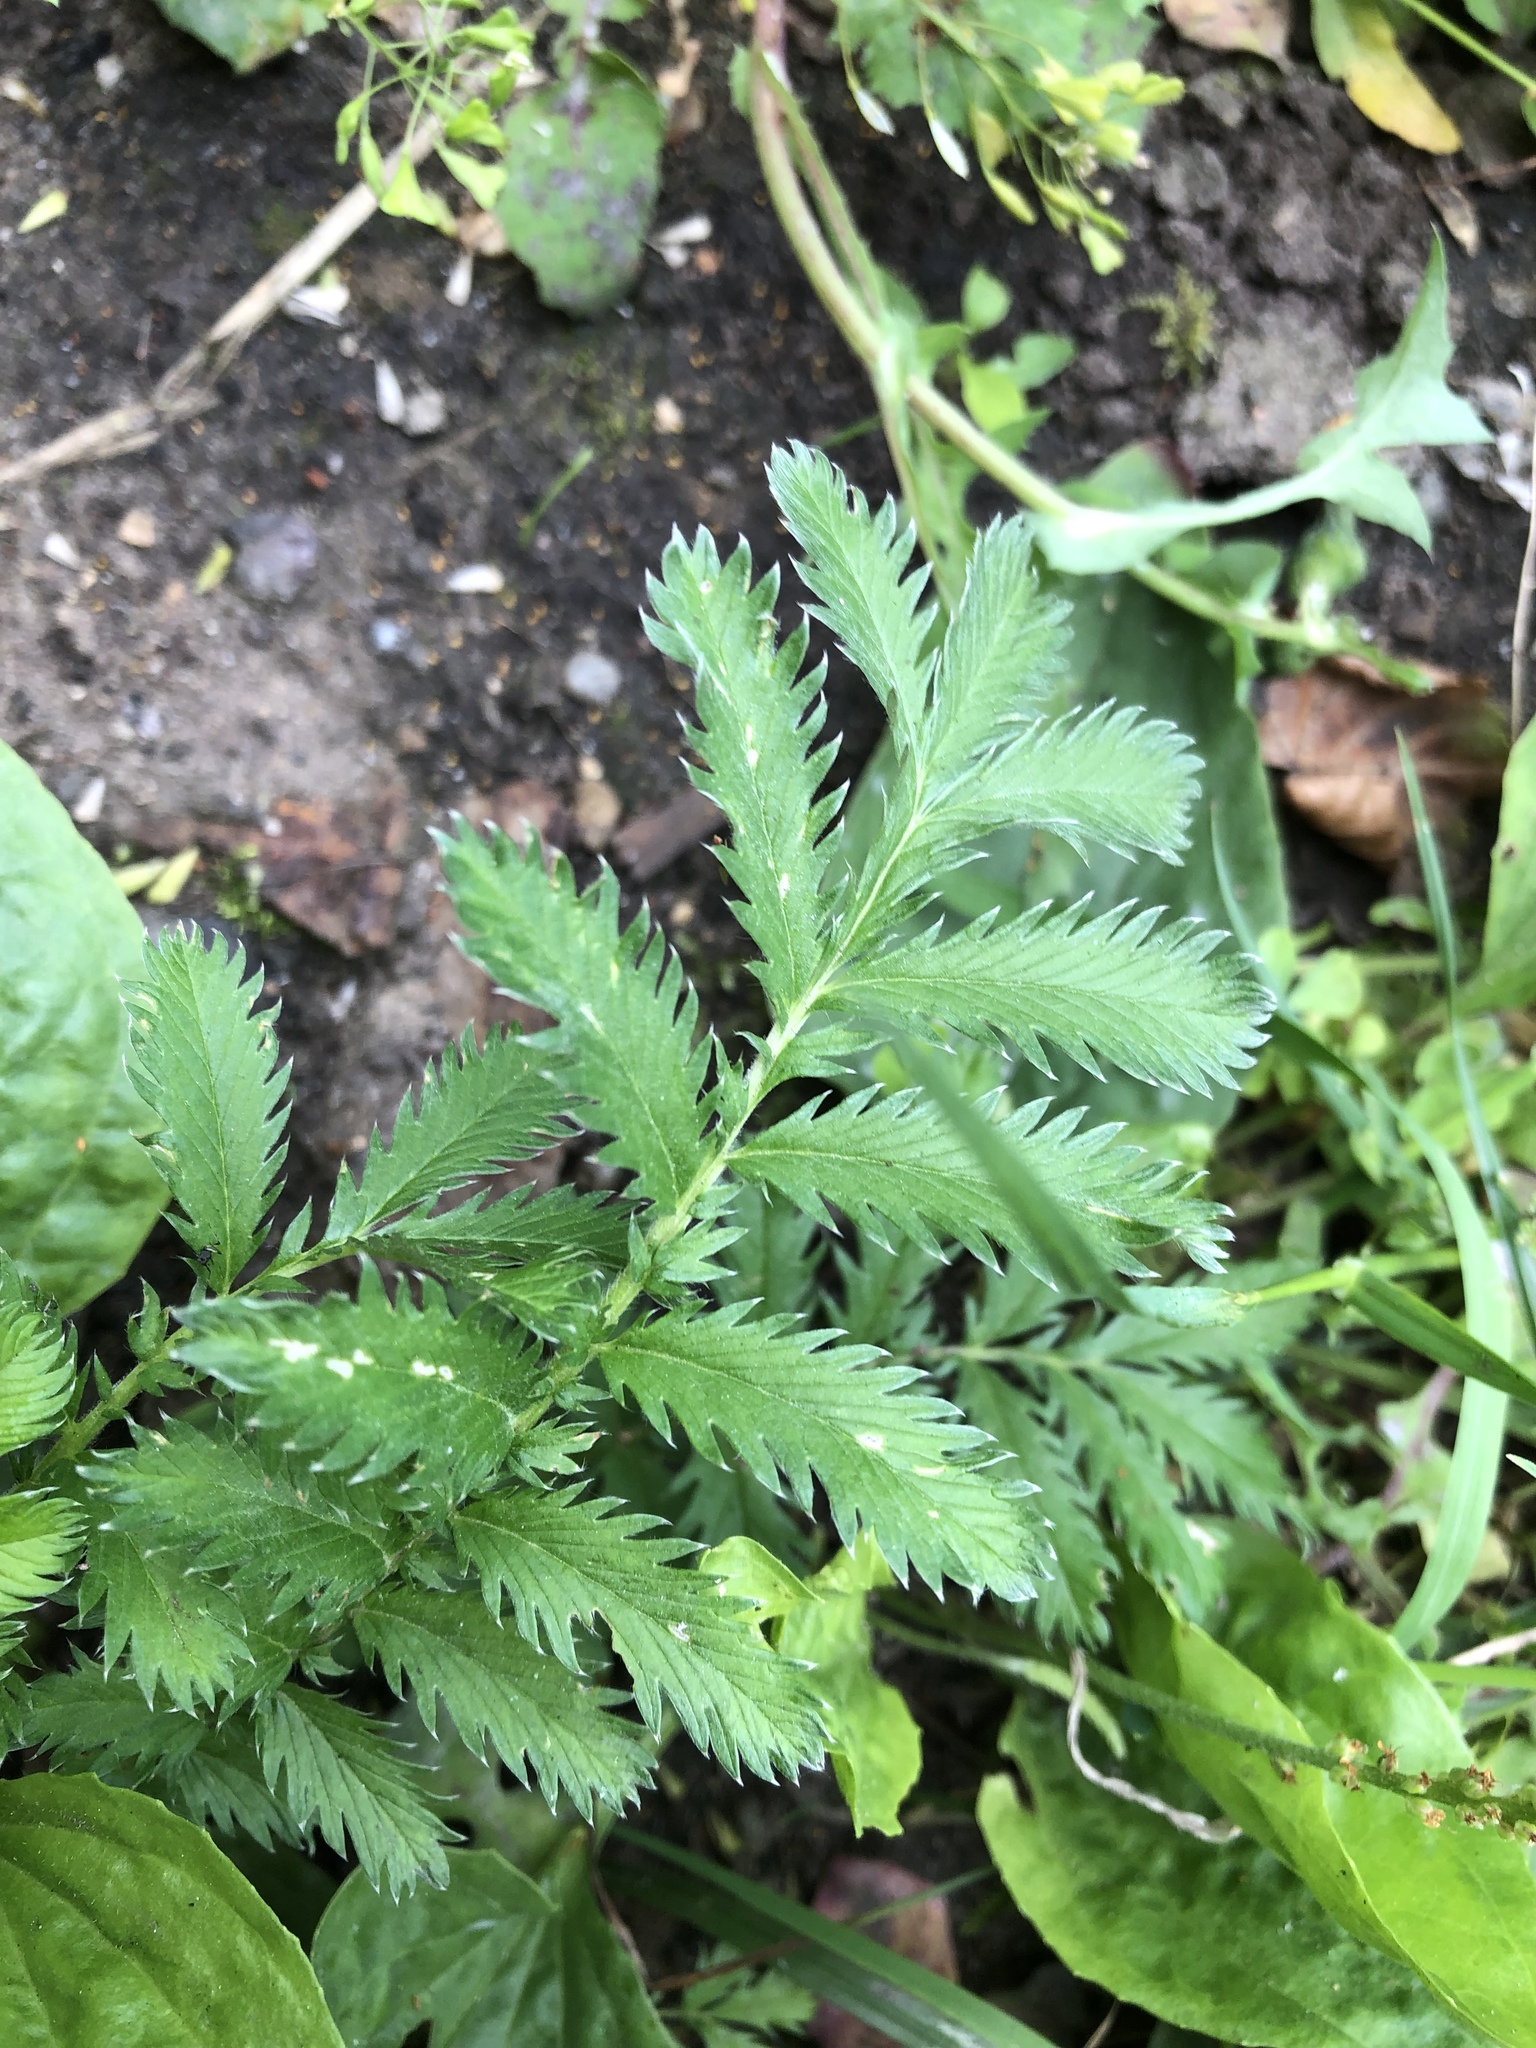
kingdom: Plantae
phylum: Tracheophyta
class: Magnoliopsida
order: Rosales
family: Rosaceae
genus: Argentina
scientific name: Argentina anserina
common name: Common silverweed
